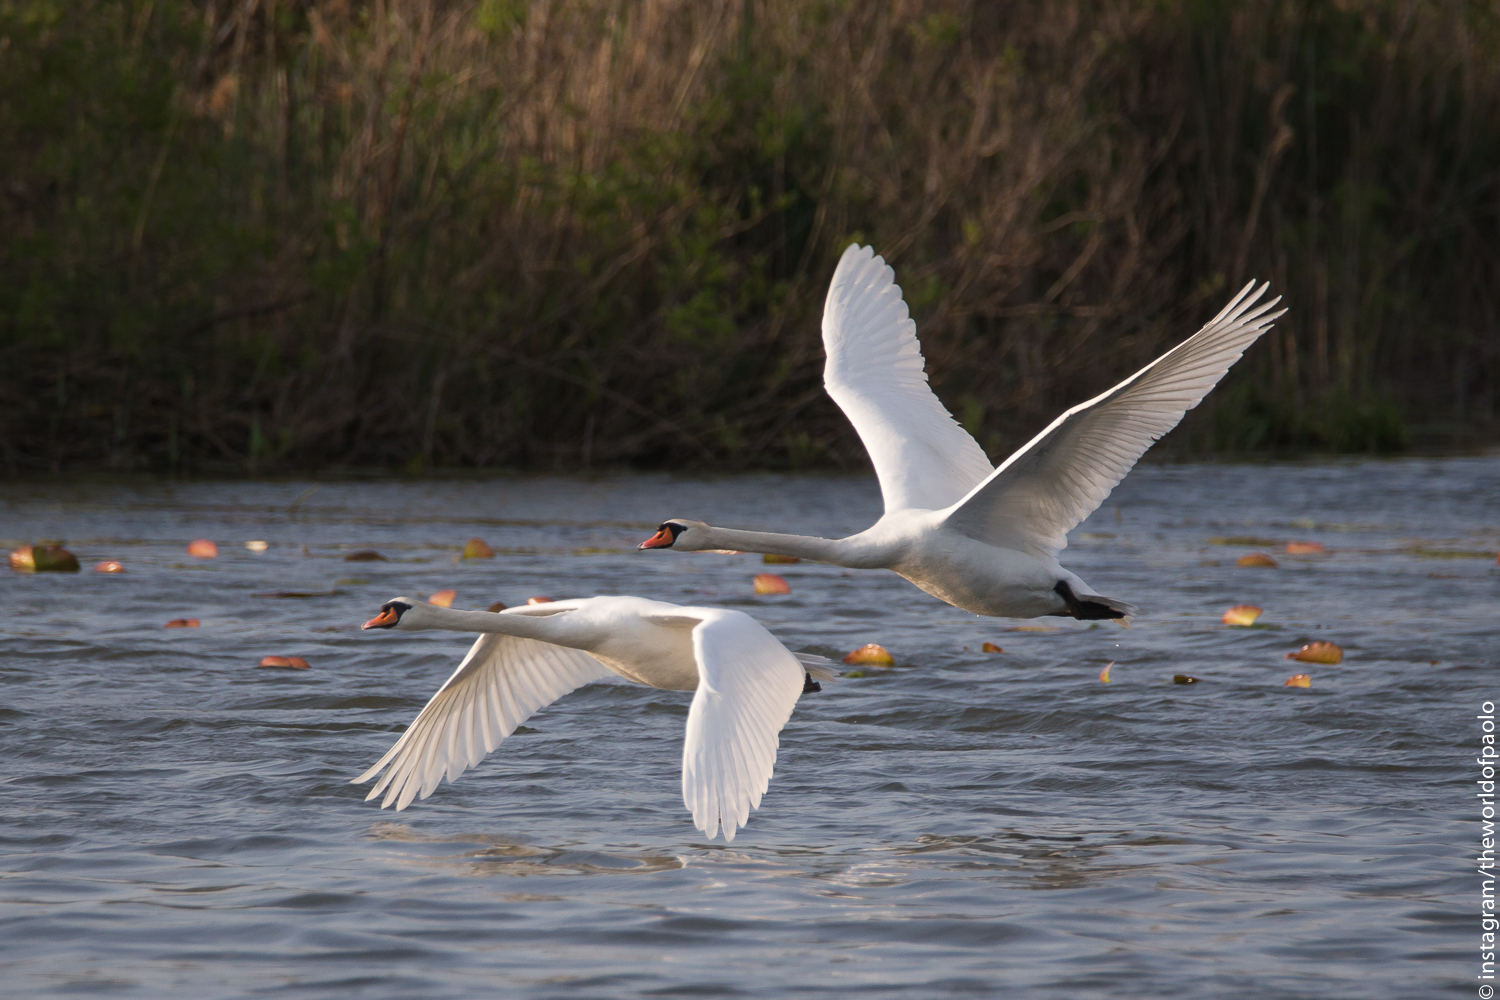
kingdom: Animalia
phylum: Chordata
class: Aves
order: Anseriformes
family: Anatidae
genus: Cygnus
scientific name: Cygnus olor
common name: Mute swan
